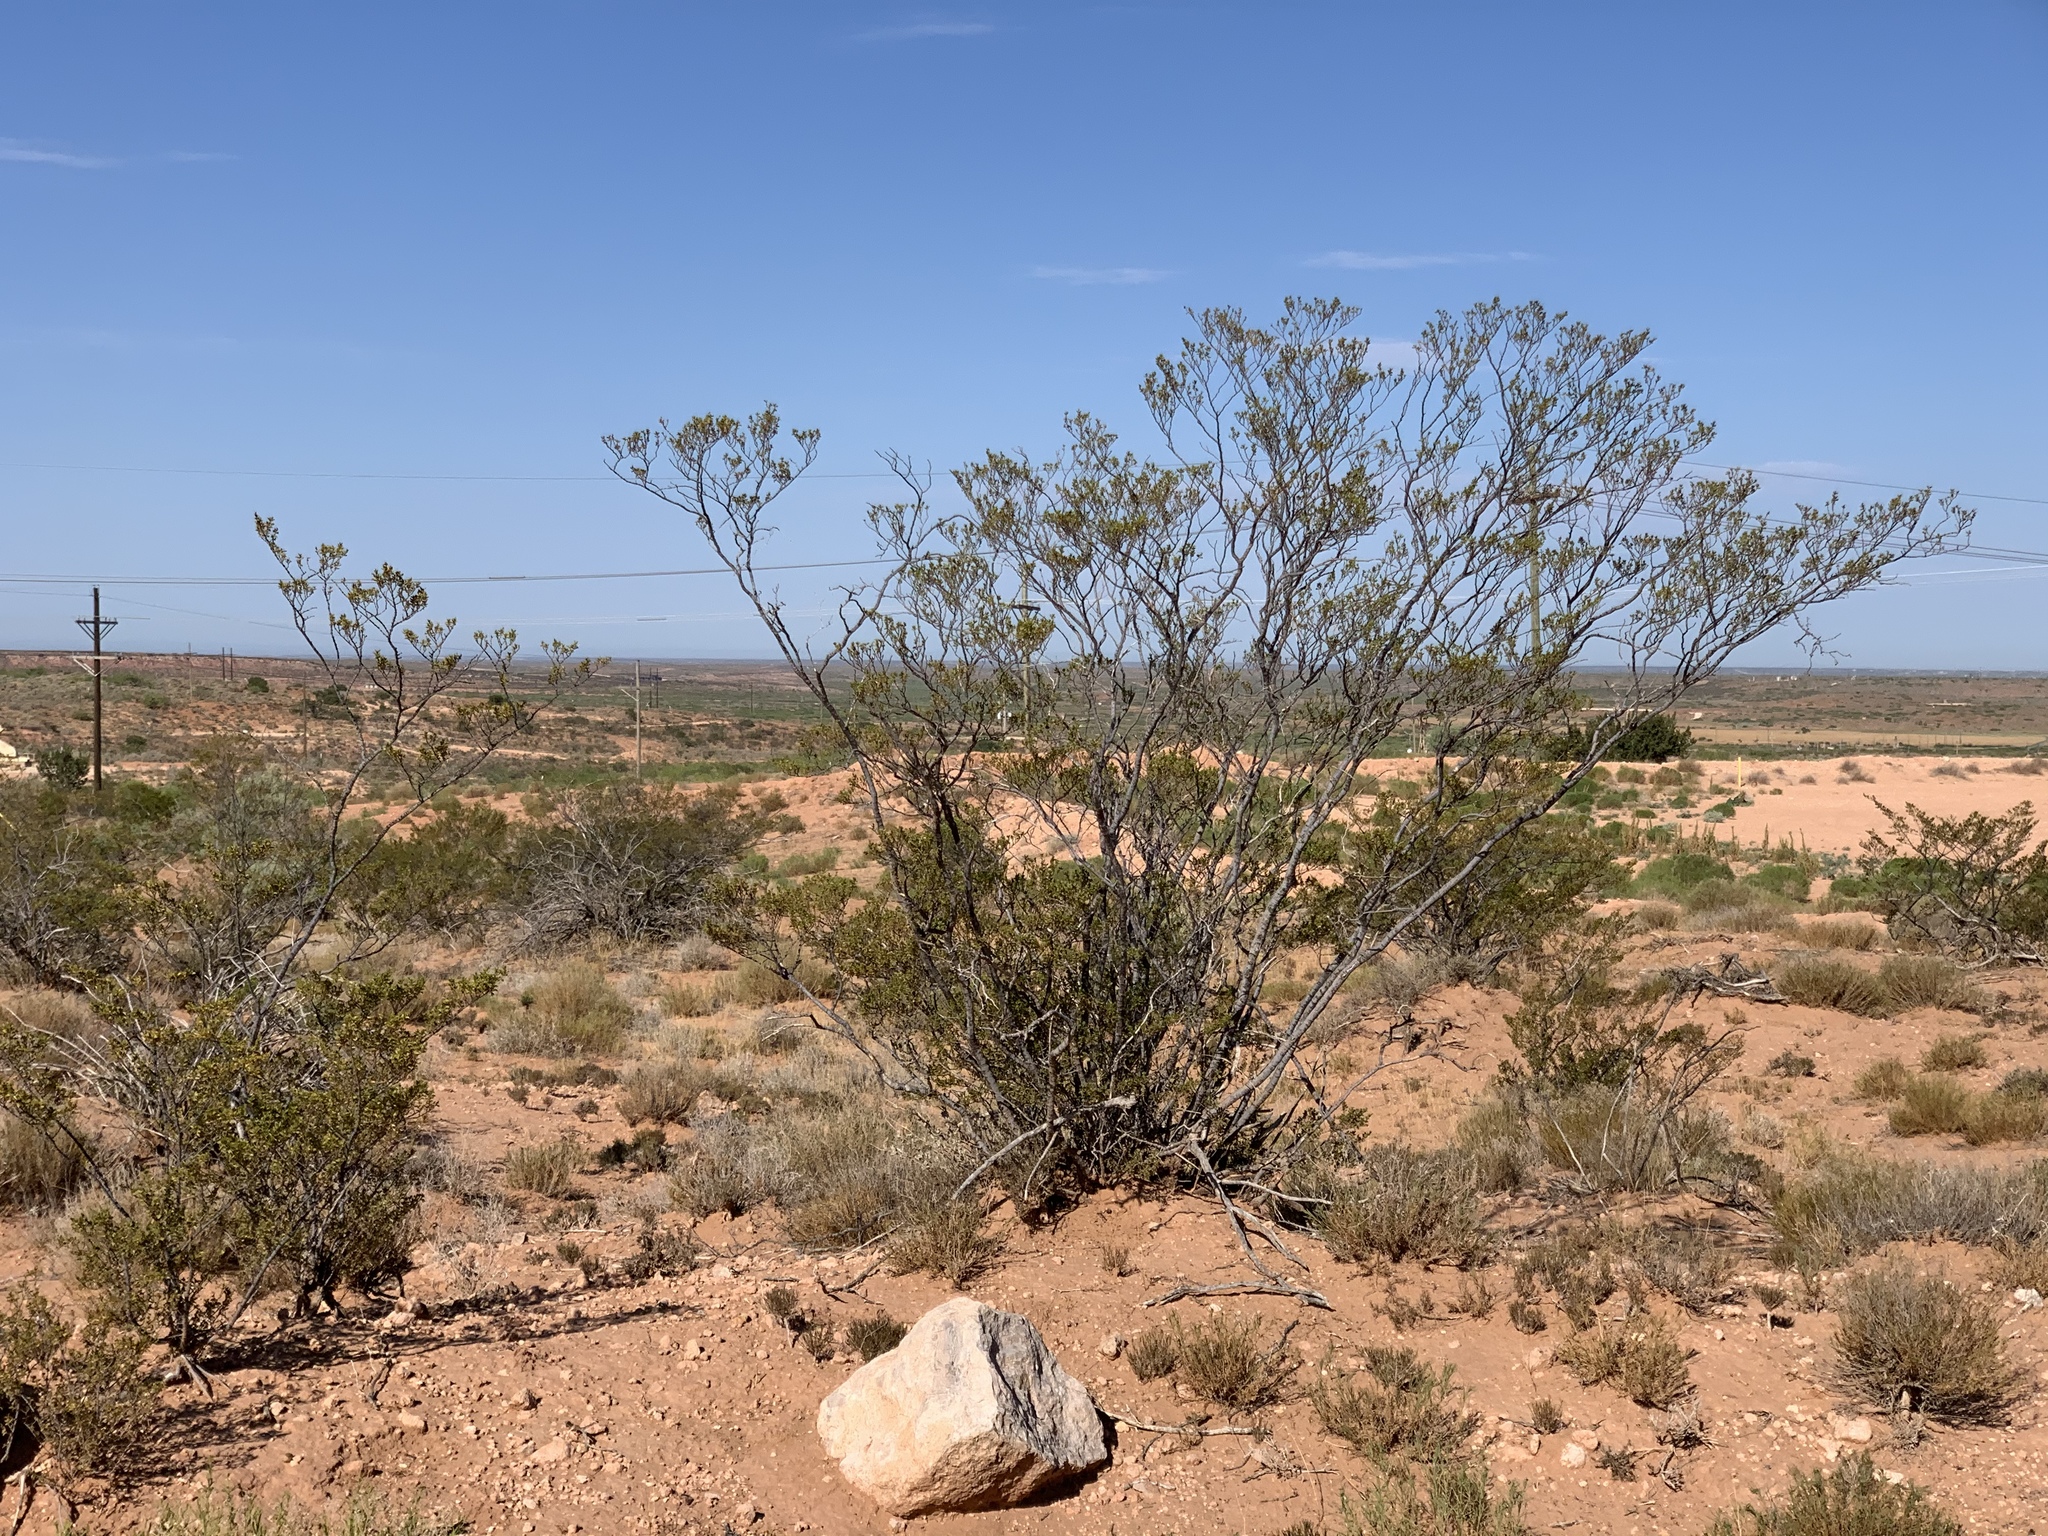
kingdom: Plantae
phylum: Tracheophyta
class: Magnoliopsida
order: Zygophyllales
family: Zygophyllaceae
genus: Larrea
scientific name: Larrea tridentata
